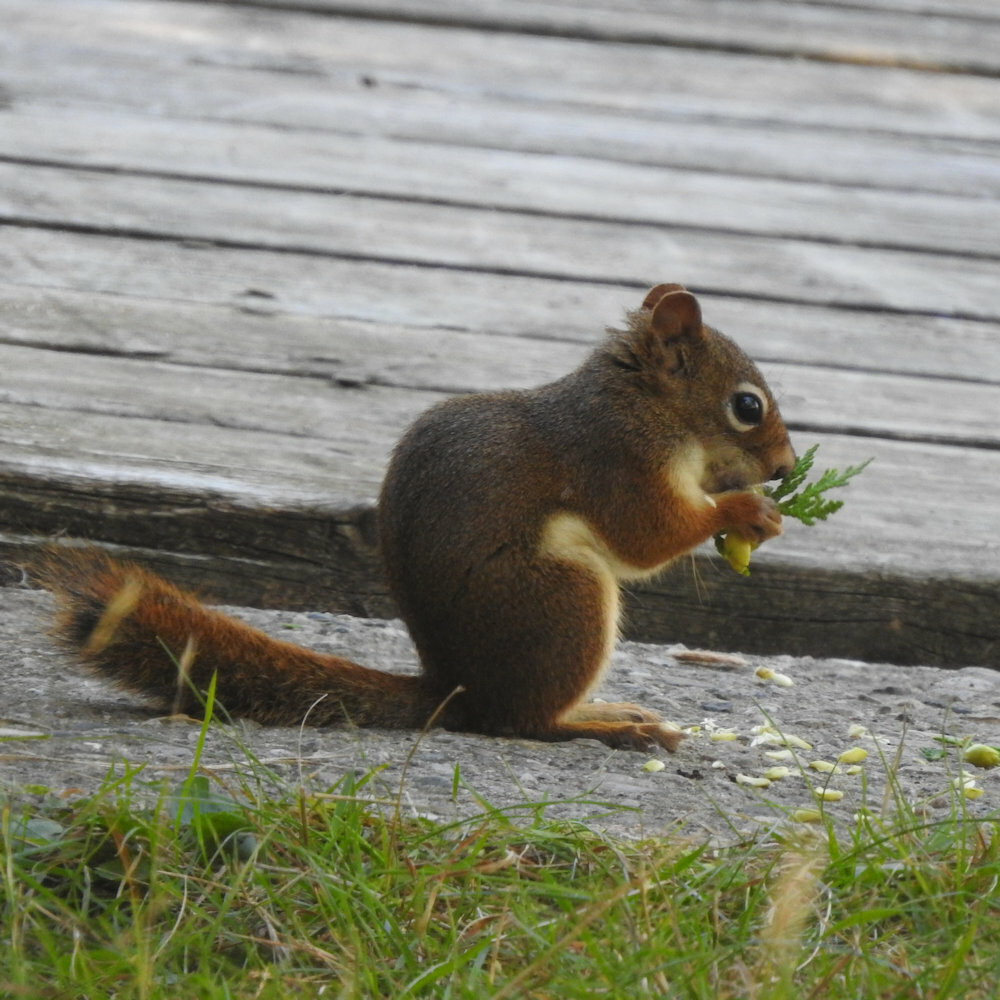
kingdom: Animalia
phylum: Chordata
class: Mammalia
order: Rodentia
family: Sciuridae
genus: Tamiasciurus
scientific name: Tamiasciurus hudsonicus
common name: Red squirrel
